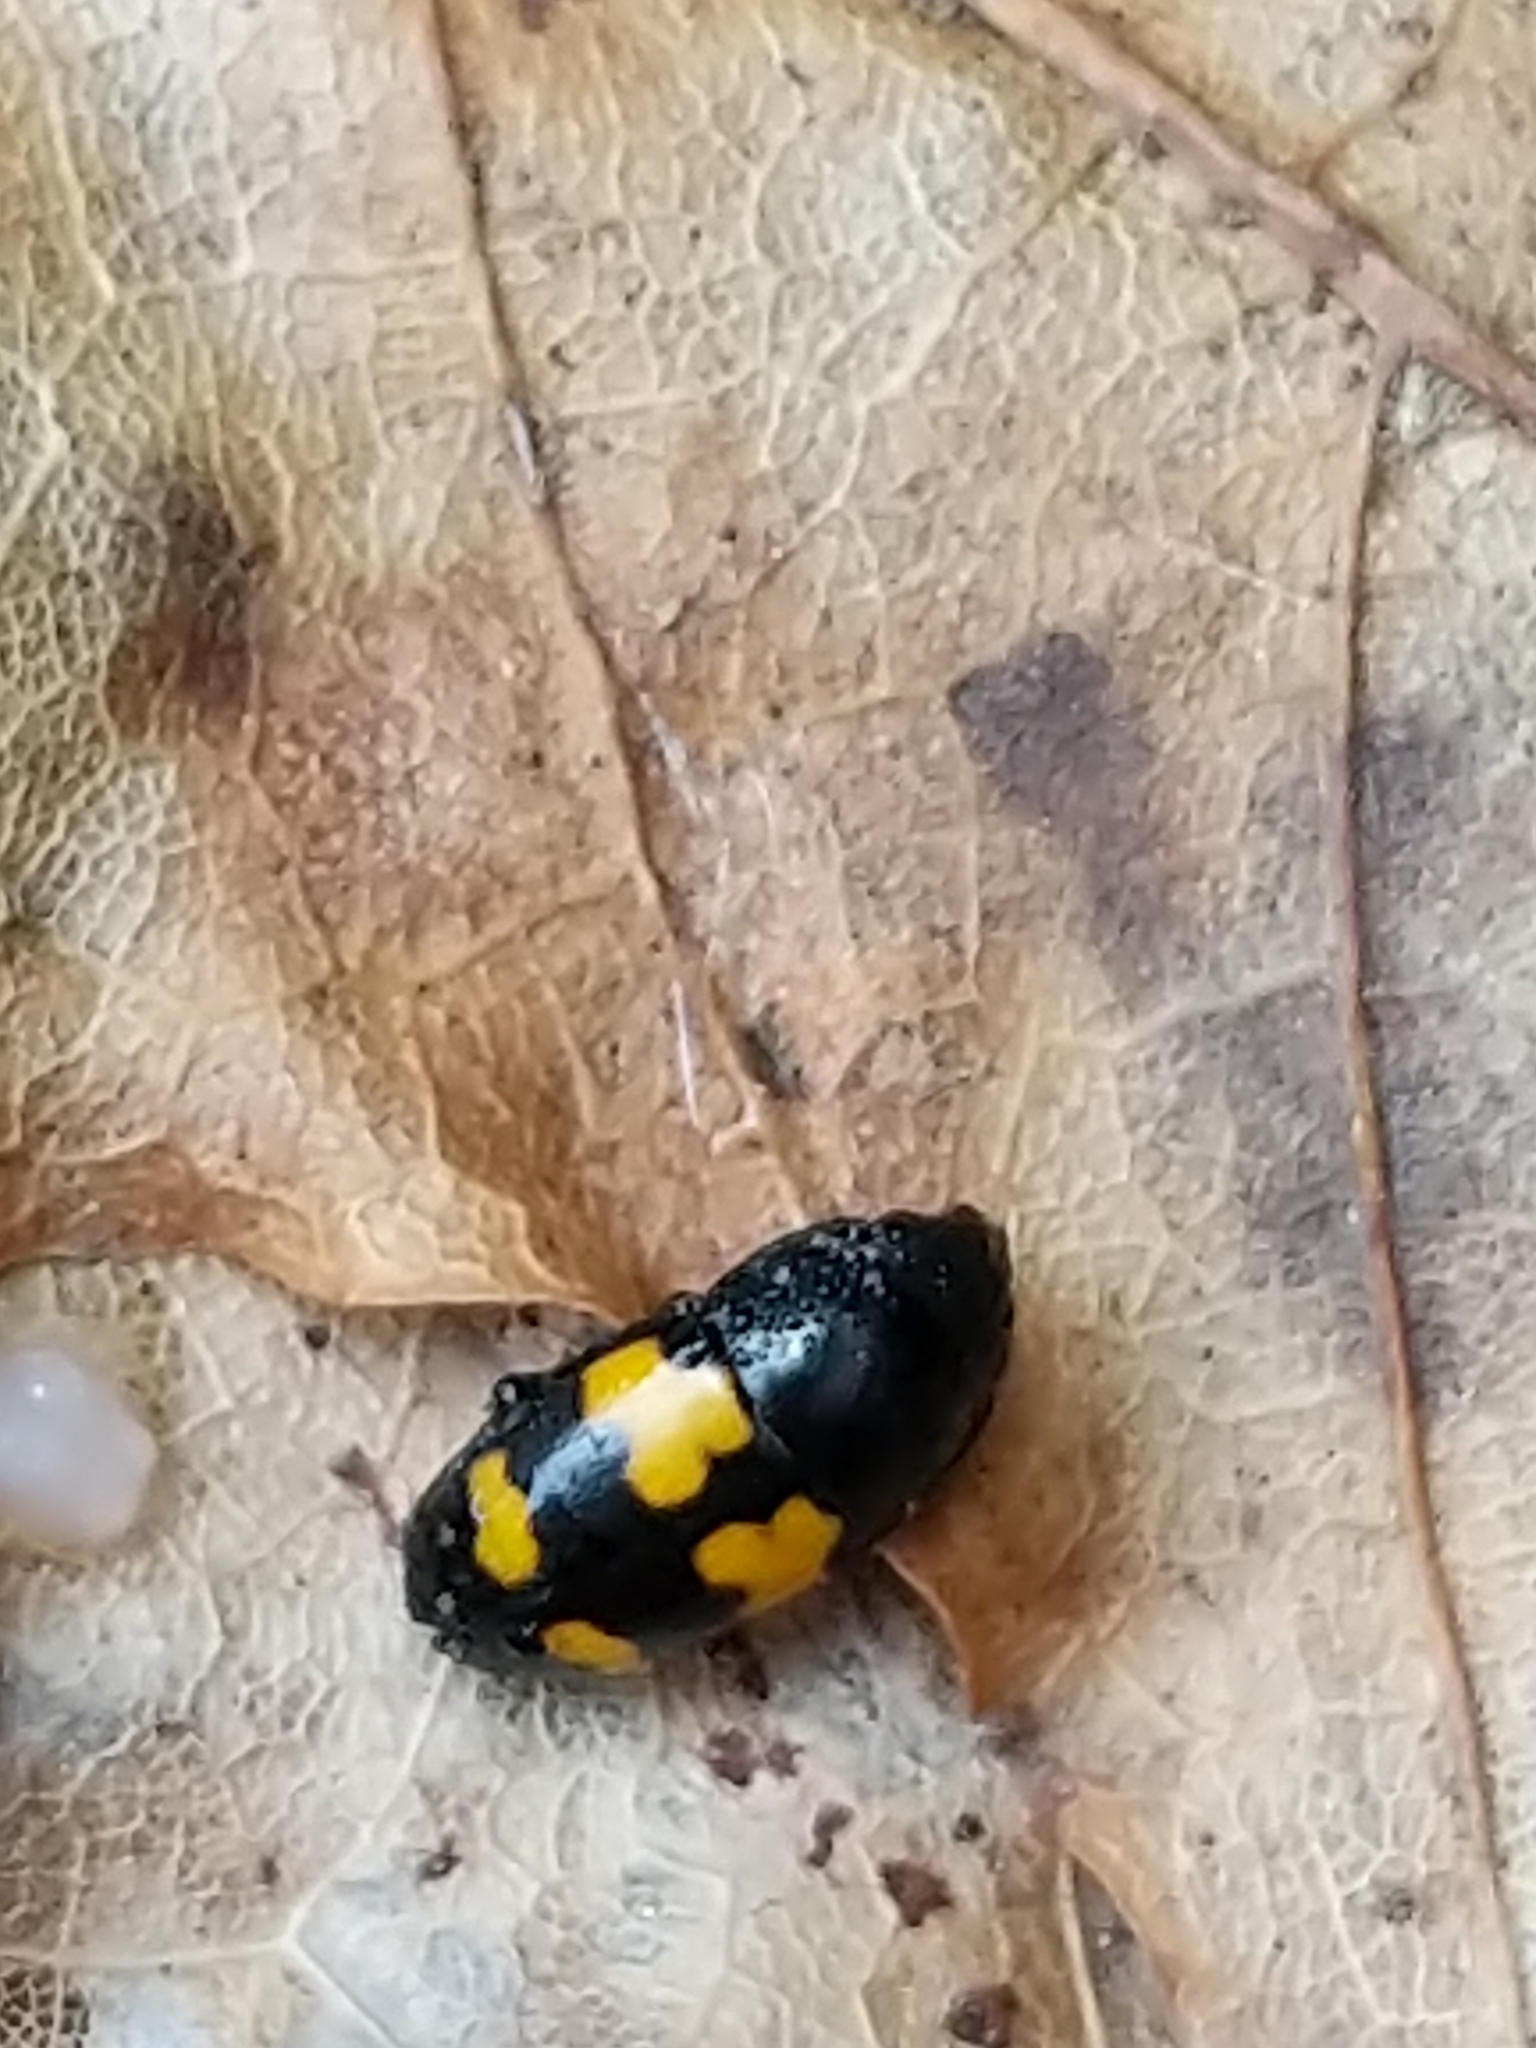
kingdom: Animalia
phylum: Arthropoda
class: Insecta
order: Coleoptera
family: Nitidulidae
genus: Glischrochilus
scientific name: Glischrochilus fasciatus
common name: Picnic beetle
